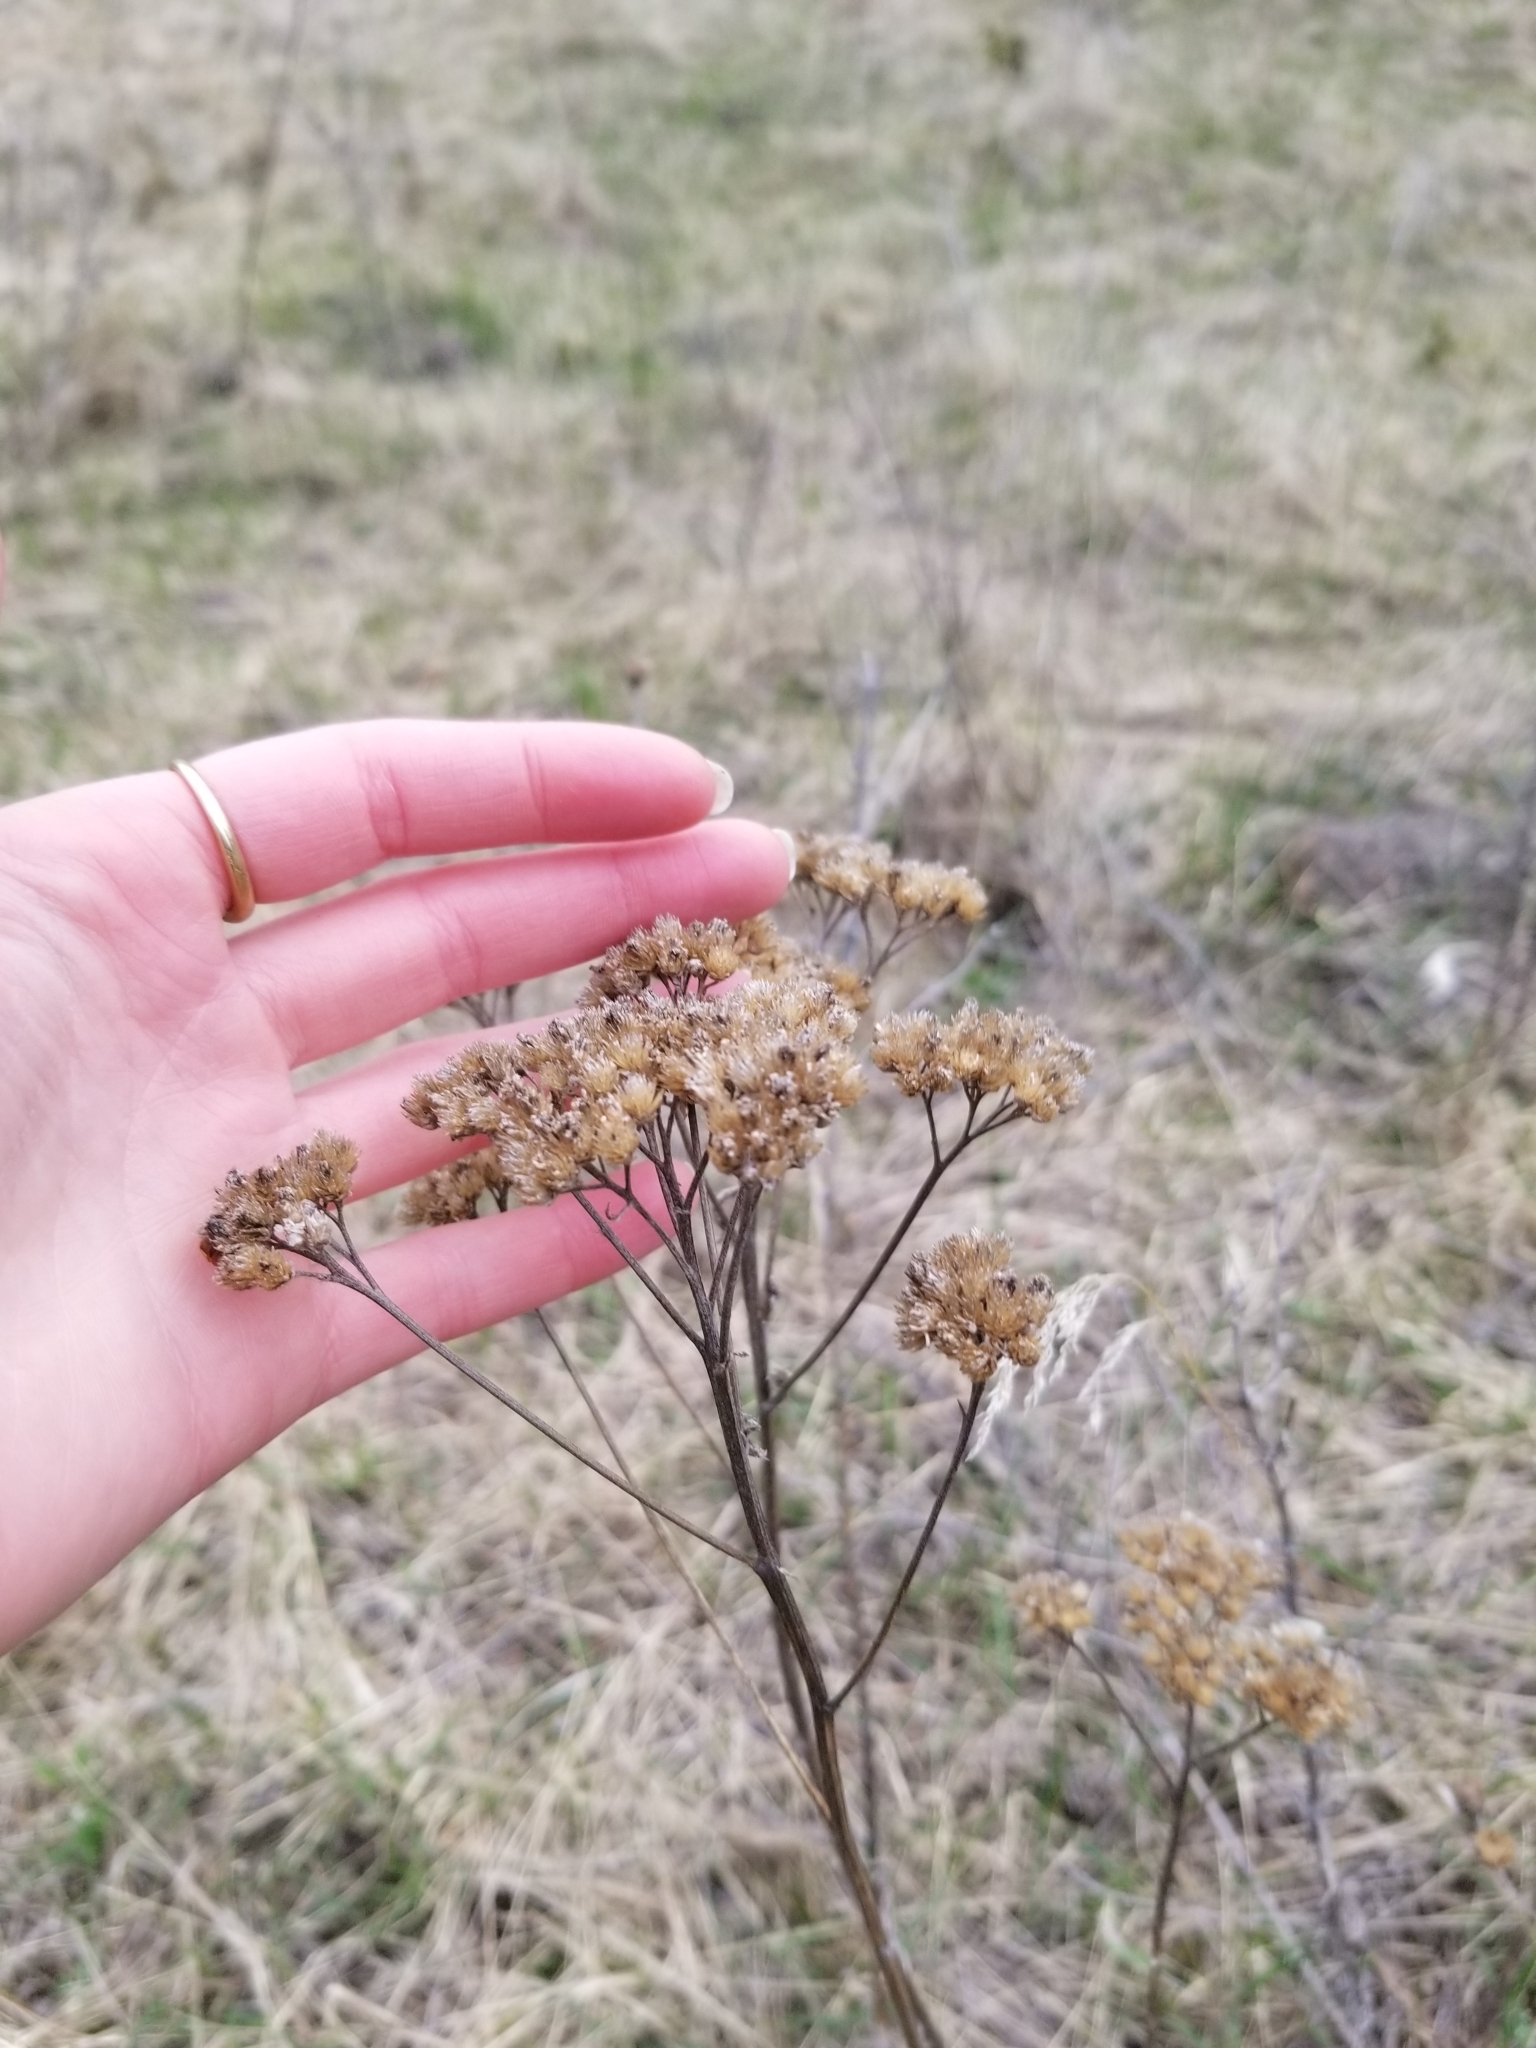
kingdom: Plantae
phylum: Tracheophyta
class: Magnoliopsida
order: Asterales
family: Asteraceae
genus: Achillea
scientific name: Achillea millefolium
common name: Yarrow
